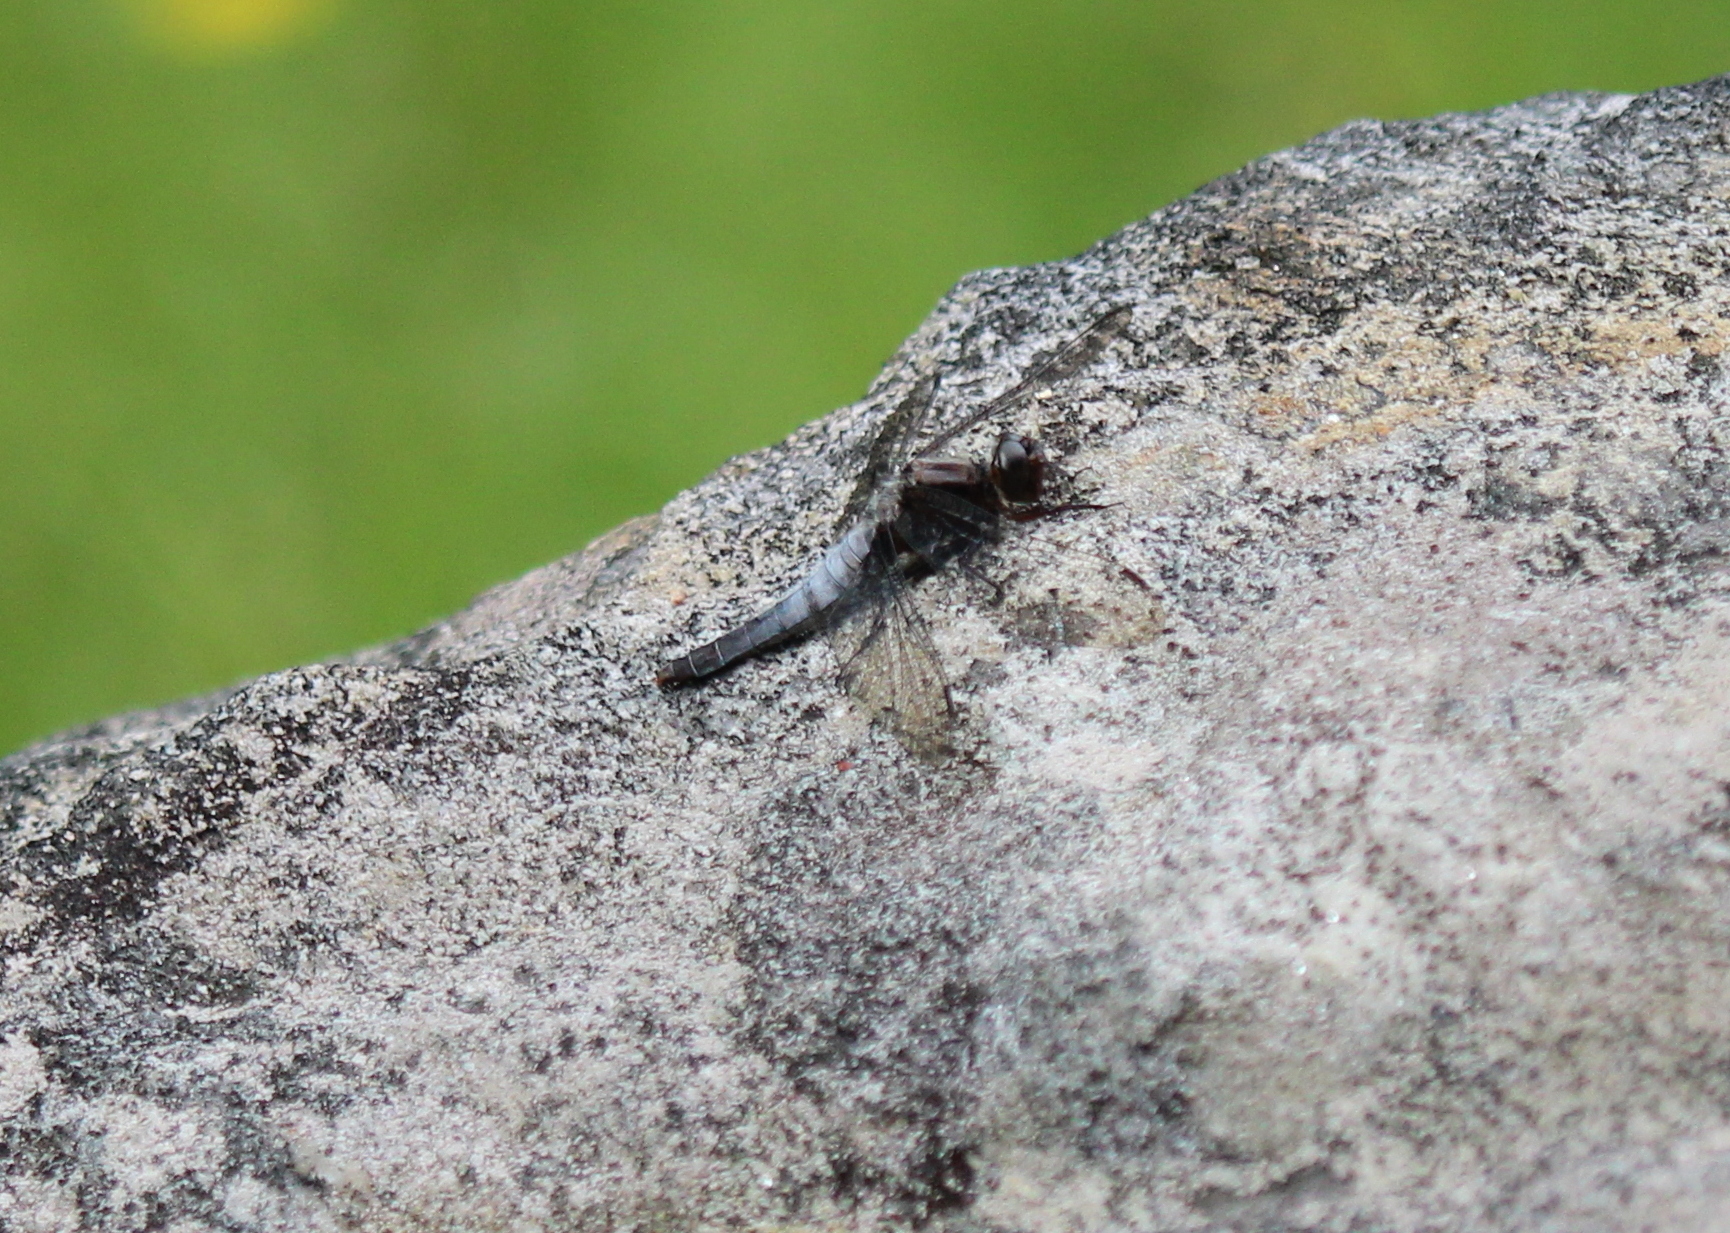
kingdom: Animalia
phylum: Arthropoda
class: Insecta
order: Odonata
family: Libellulidae
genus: Ladona
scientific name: Ladona julia
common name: Chalk-fronted corporal
